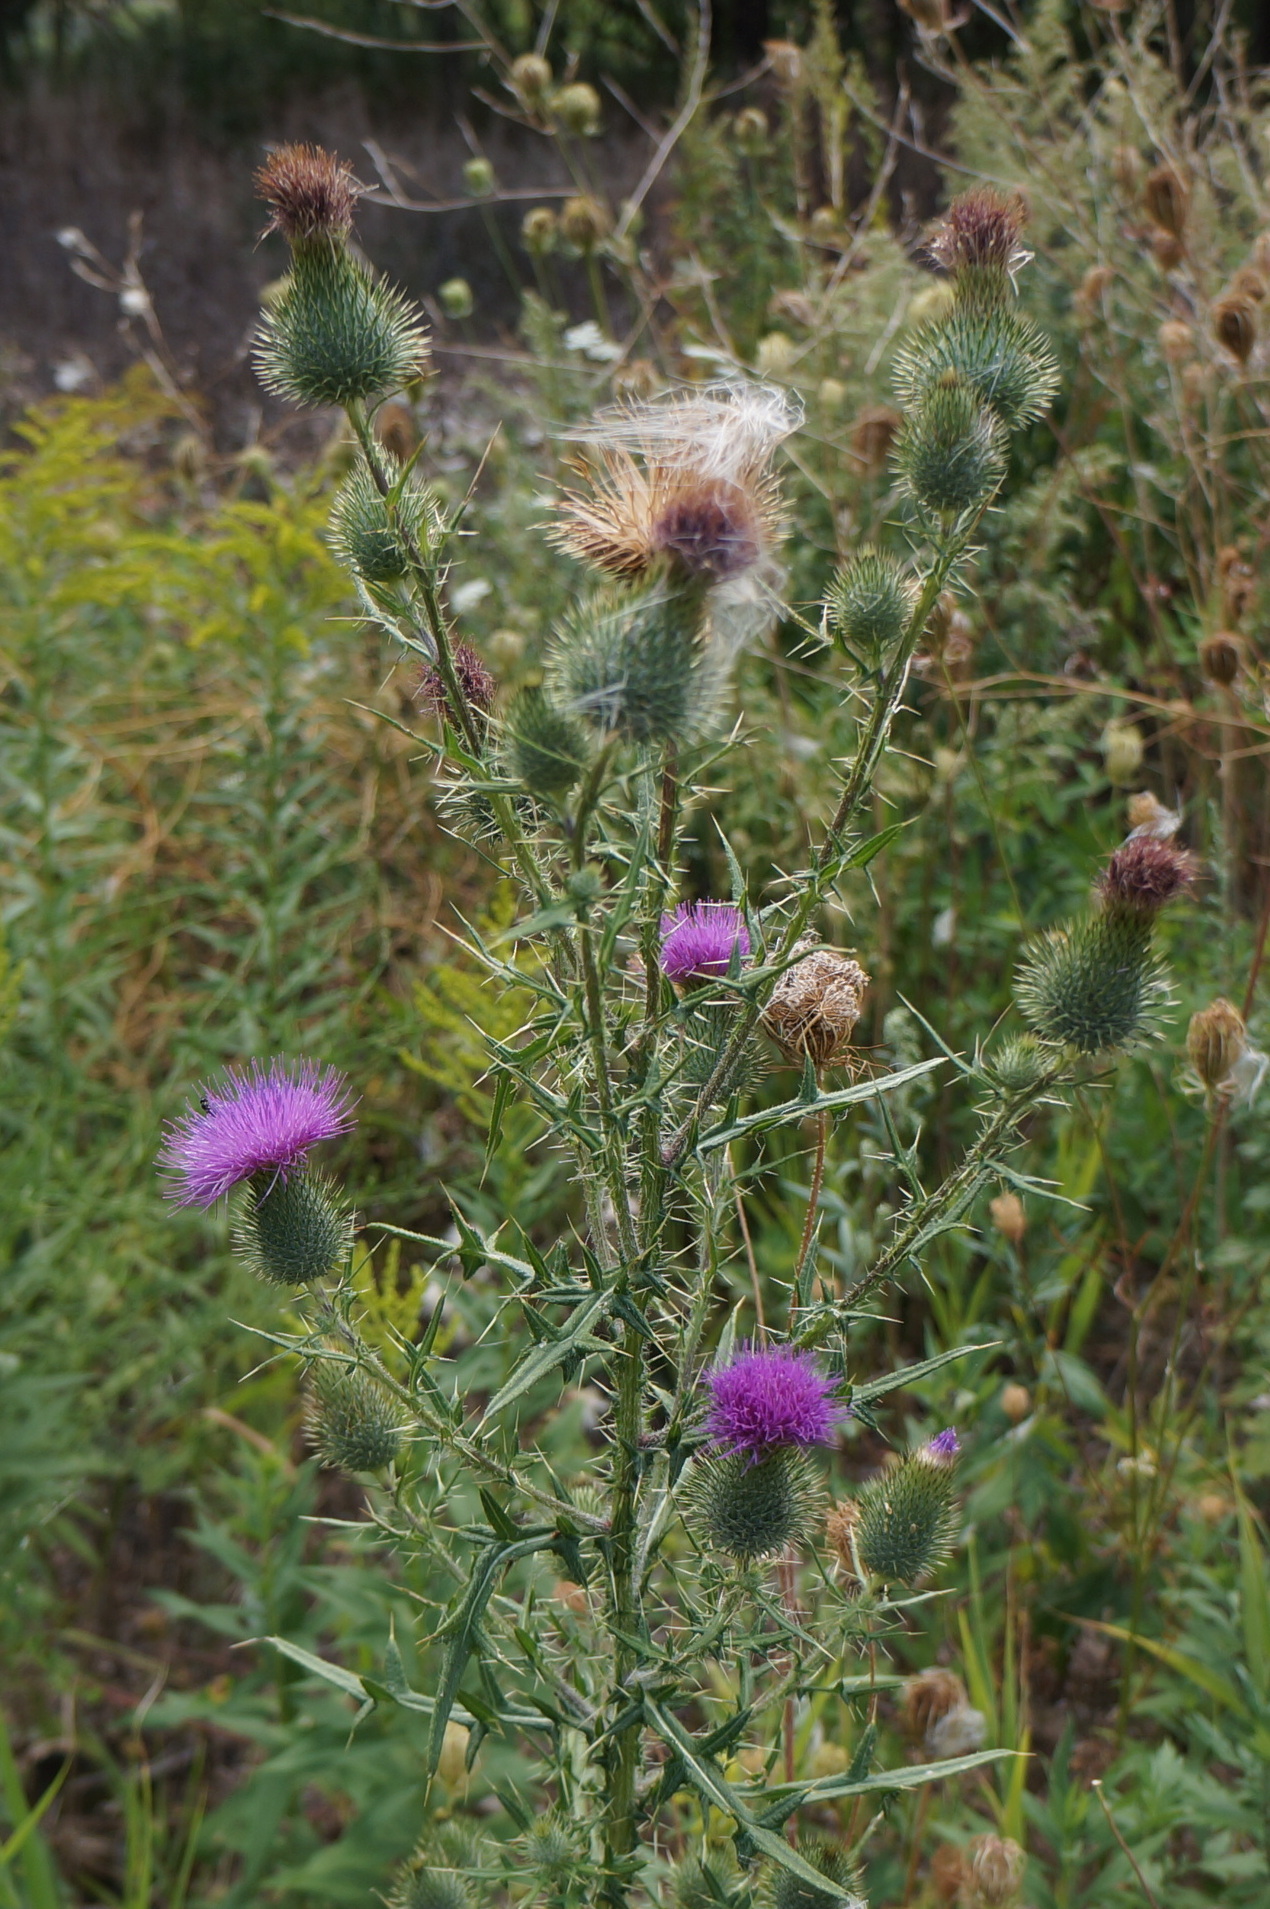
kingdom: Plantae
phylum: Tracheophyta
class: Magnoliopsida
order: Asterales
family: Asteraceae
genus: Cirsium
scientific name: Cirsium vulgare
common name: Bull thistle
